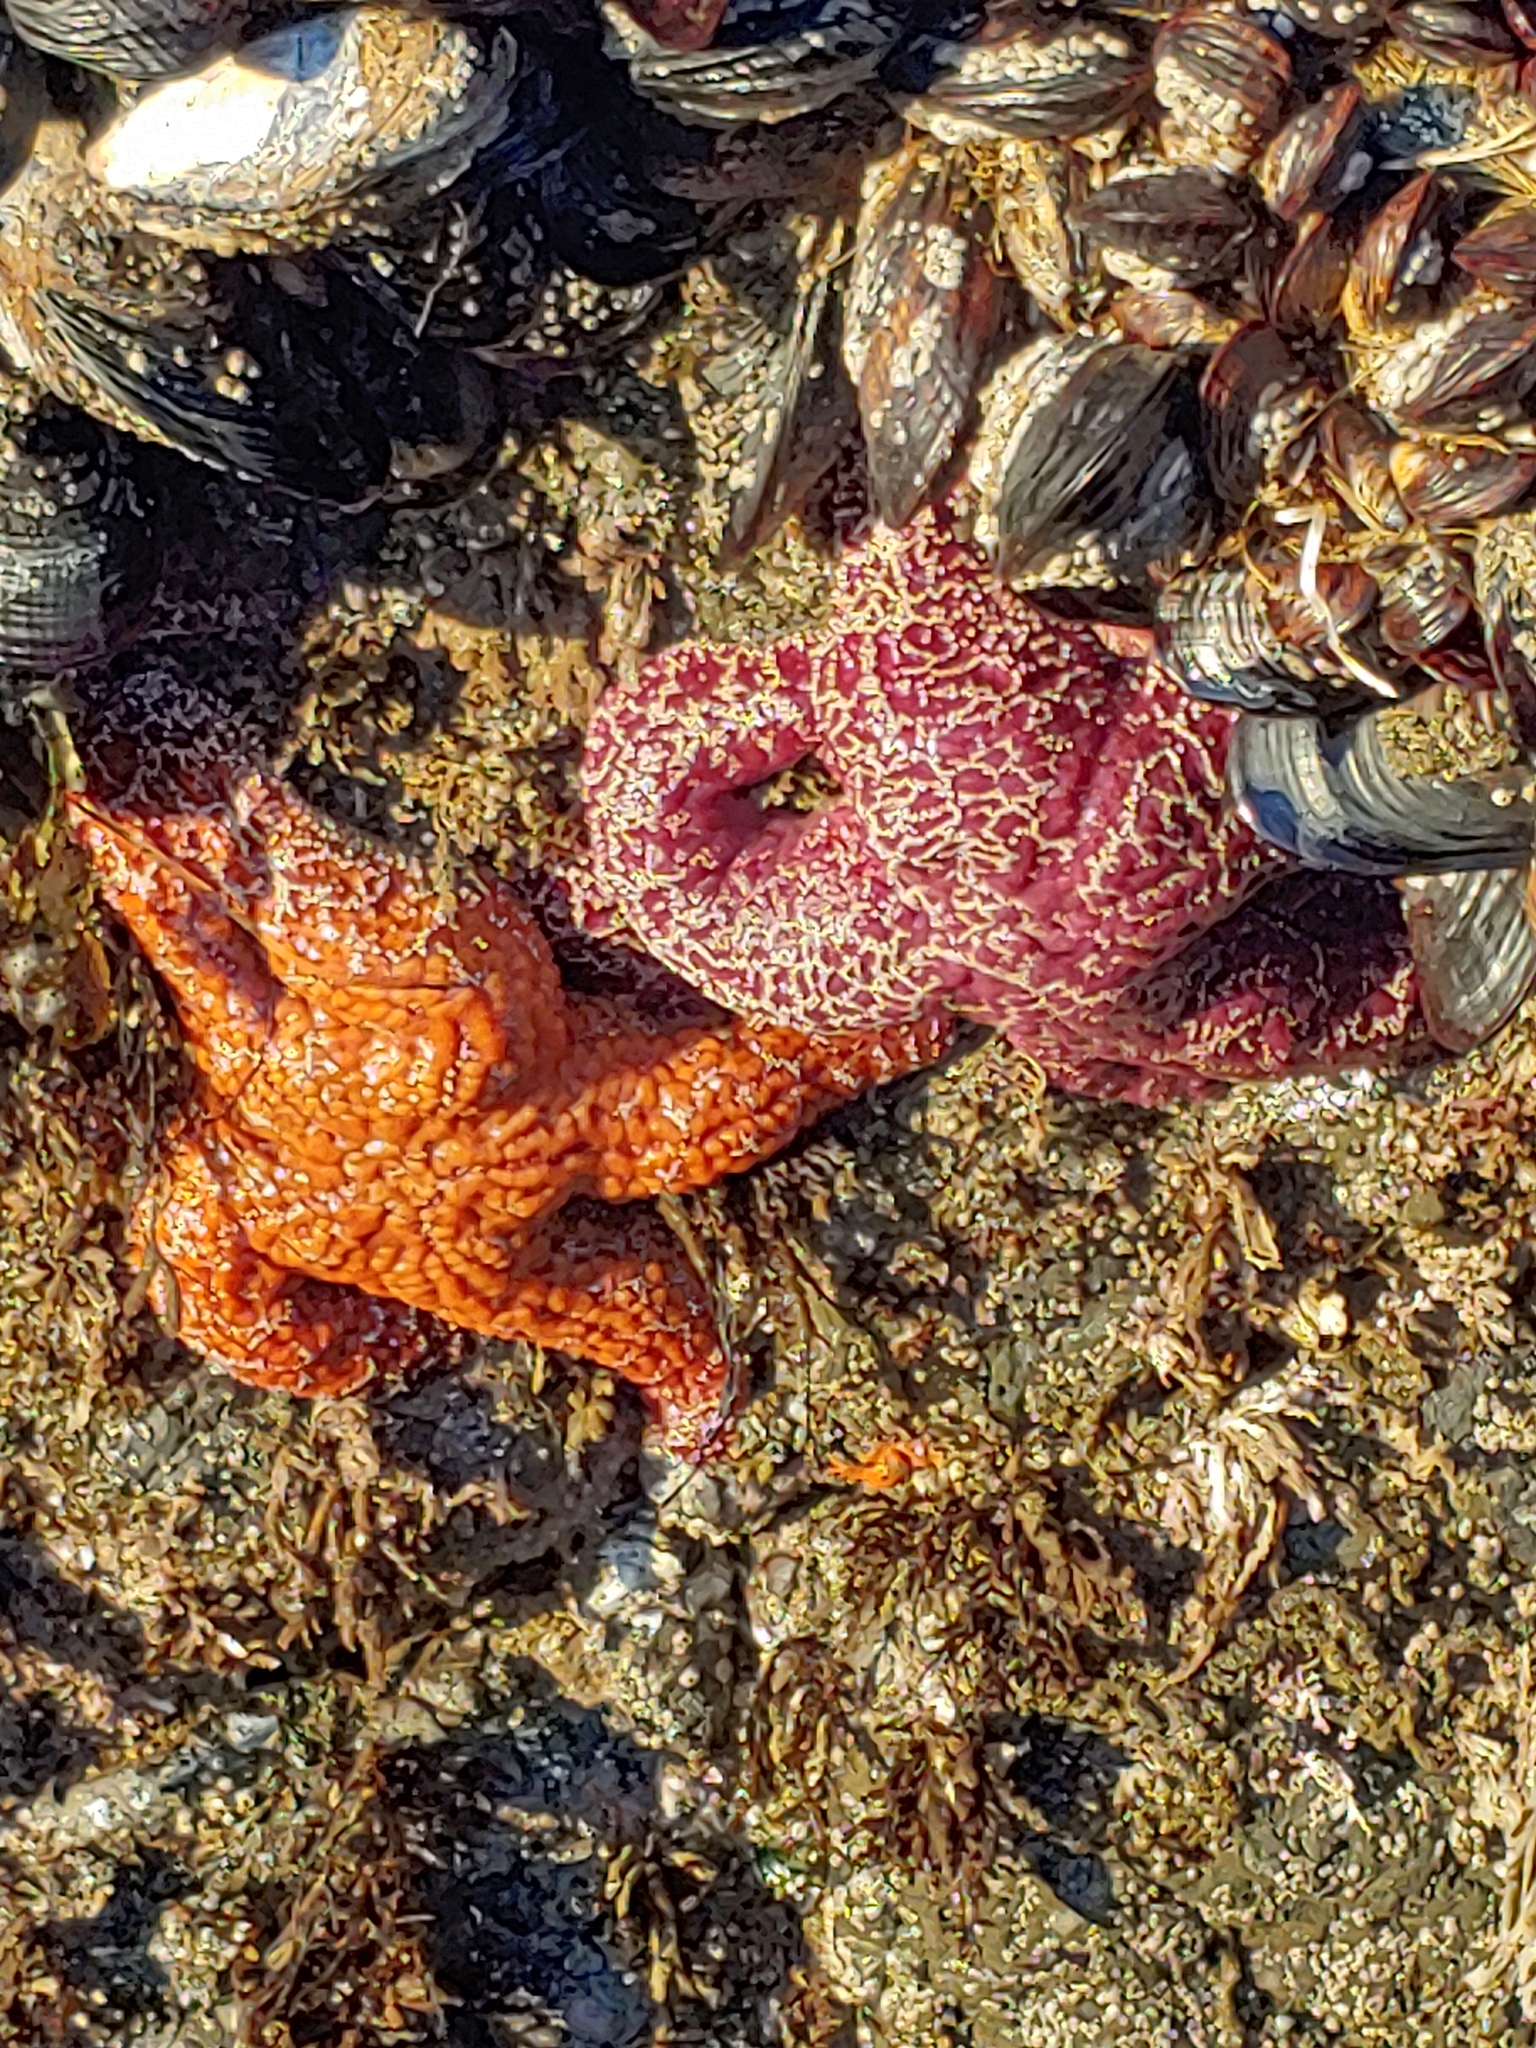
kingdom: Animalia
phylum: Echinodermata
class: Asteroidea
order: Forcipulatida
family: Asteriidae
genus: Pisaster
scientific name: Pisaster ochraceus
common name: Ochre stars
